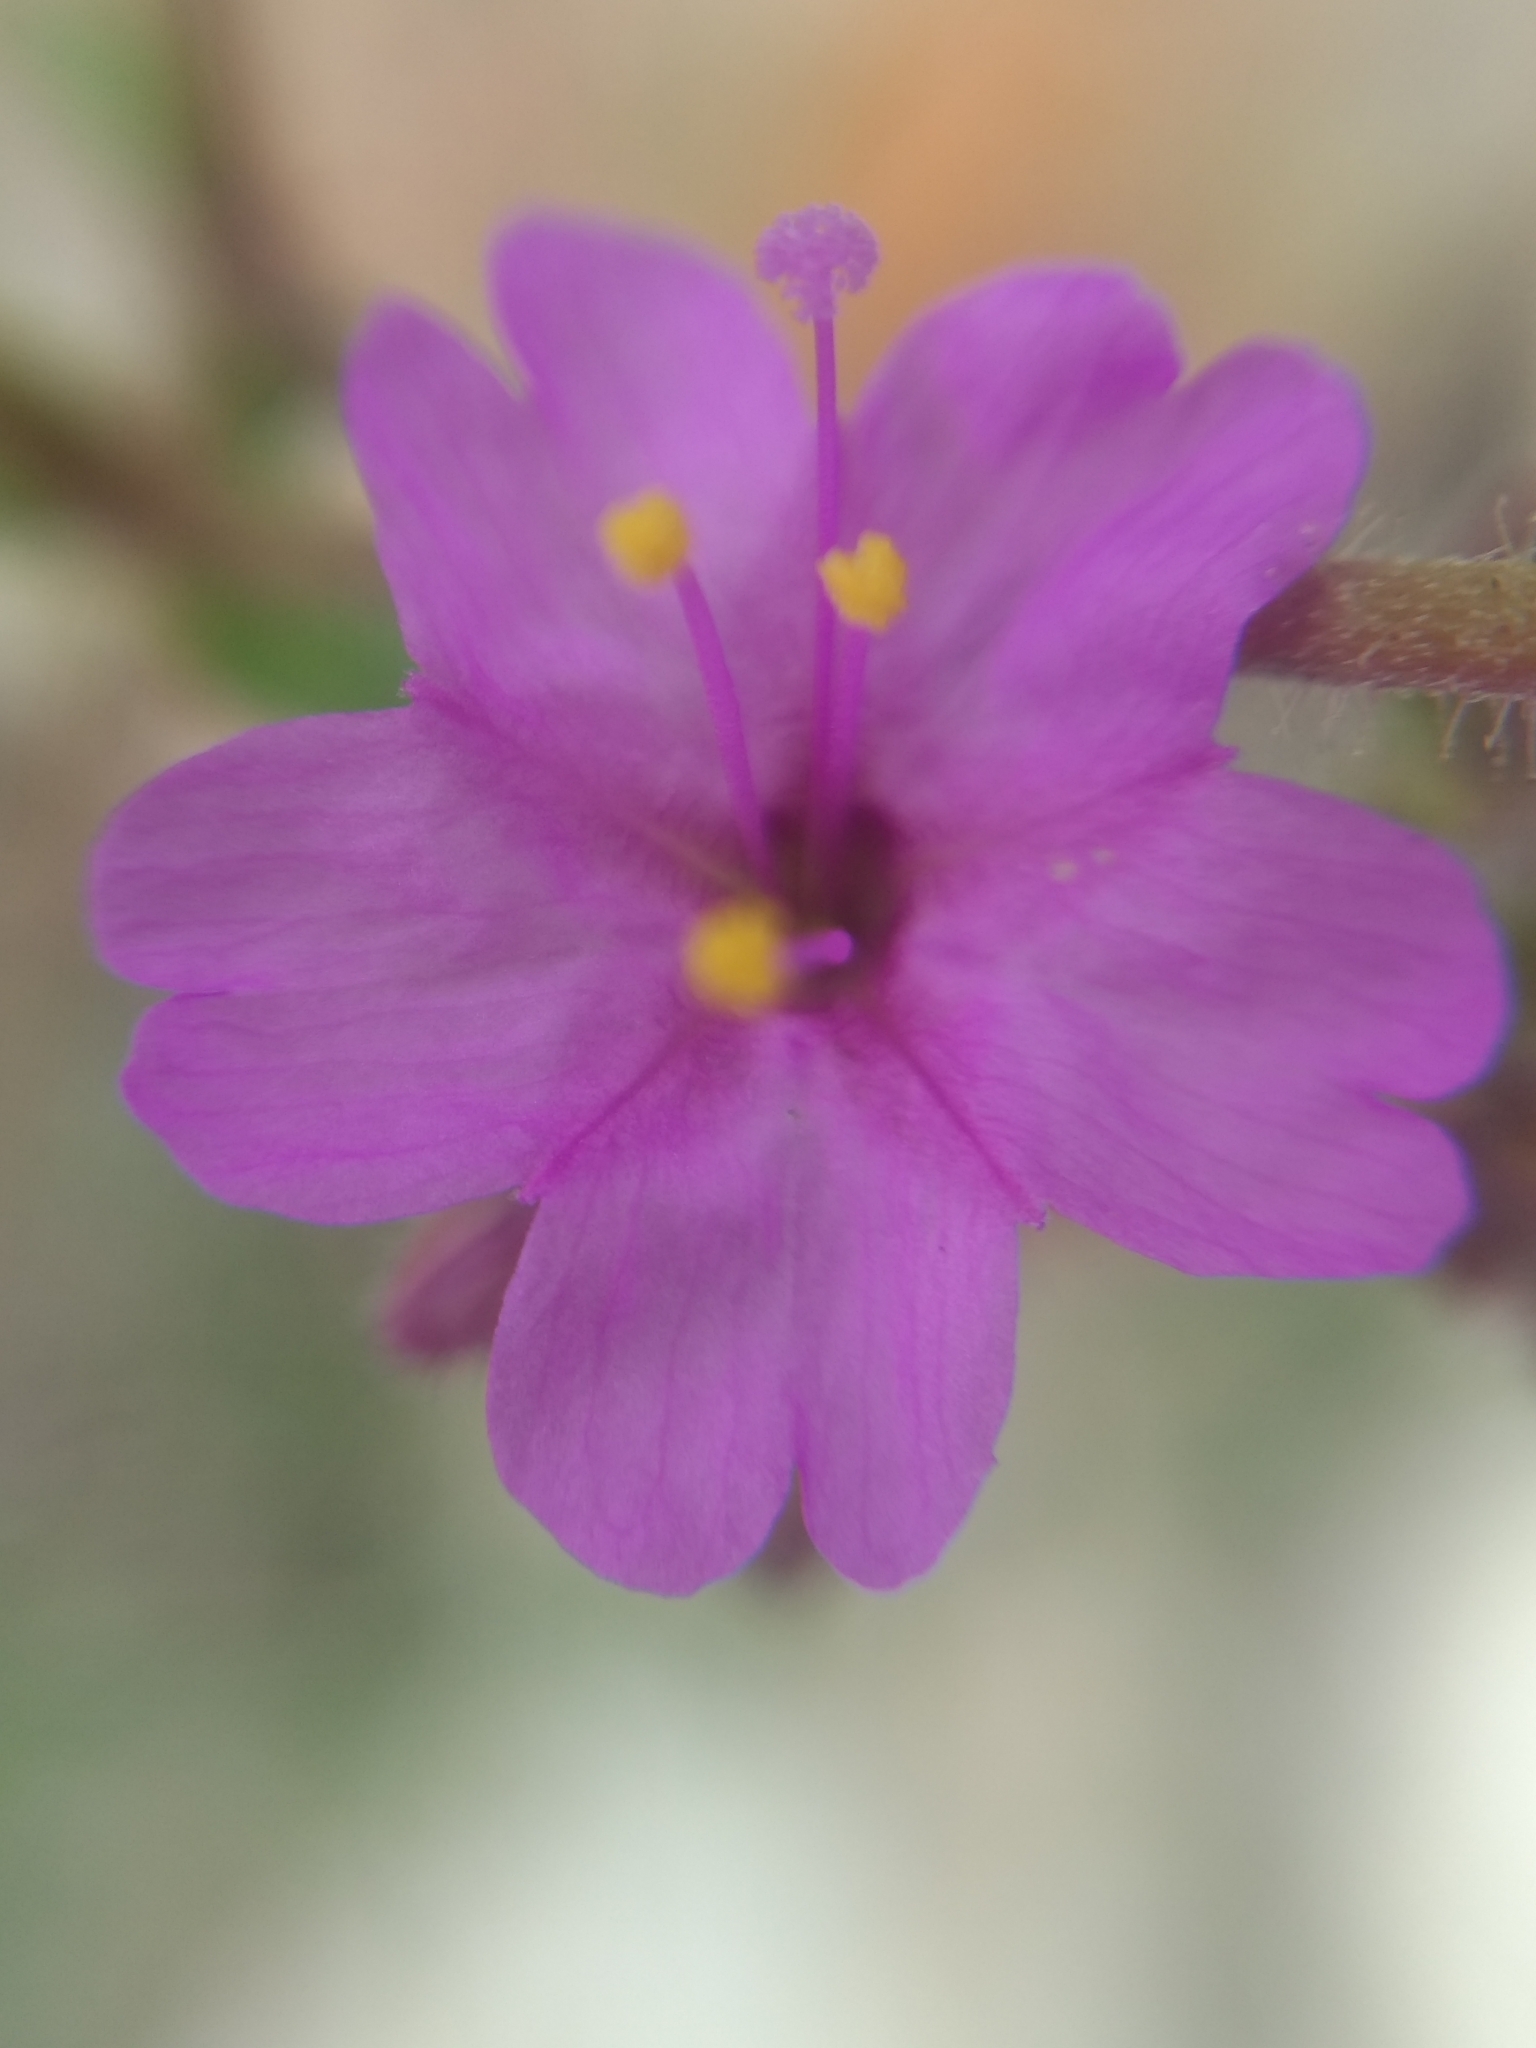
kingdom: Plantae
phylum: Tracheophyta
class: Magnoliopsida
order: Caryophyllales
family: Nyctaginaceae
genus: Mirabilis
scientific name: Mirabilis viscosa
